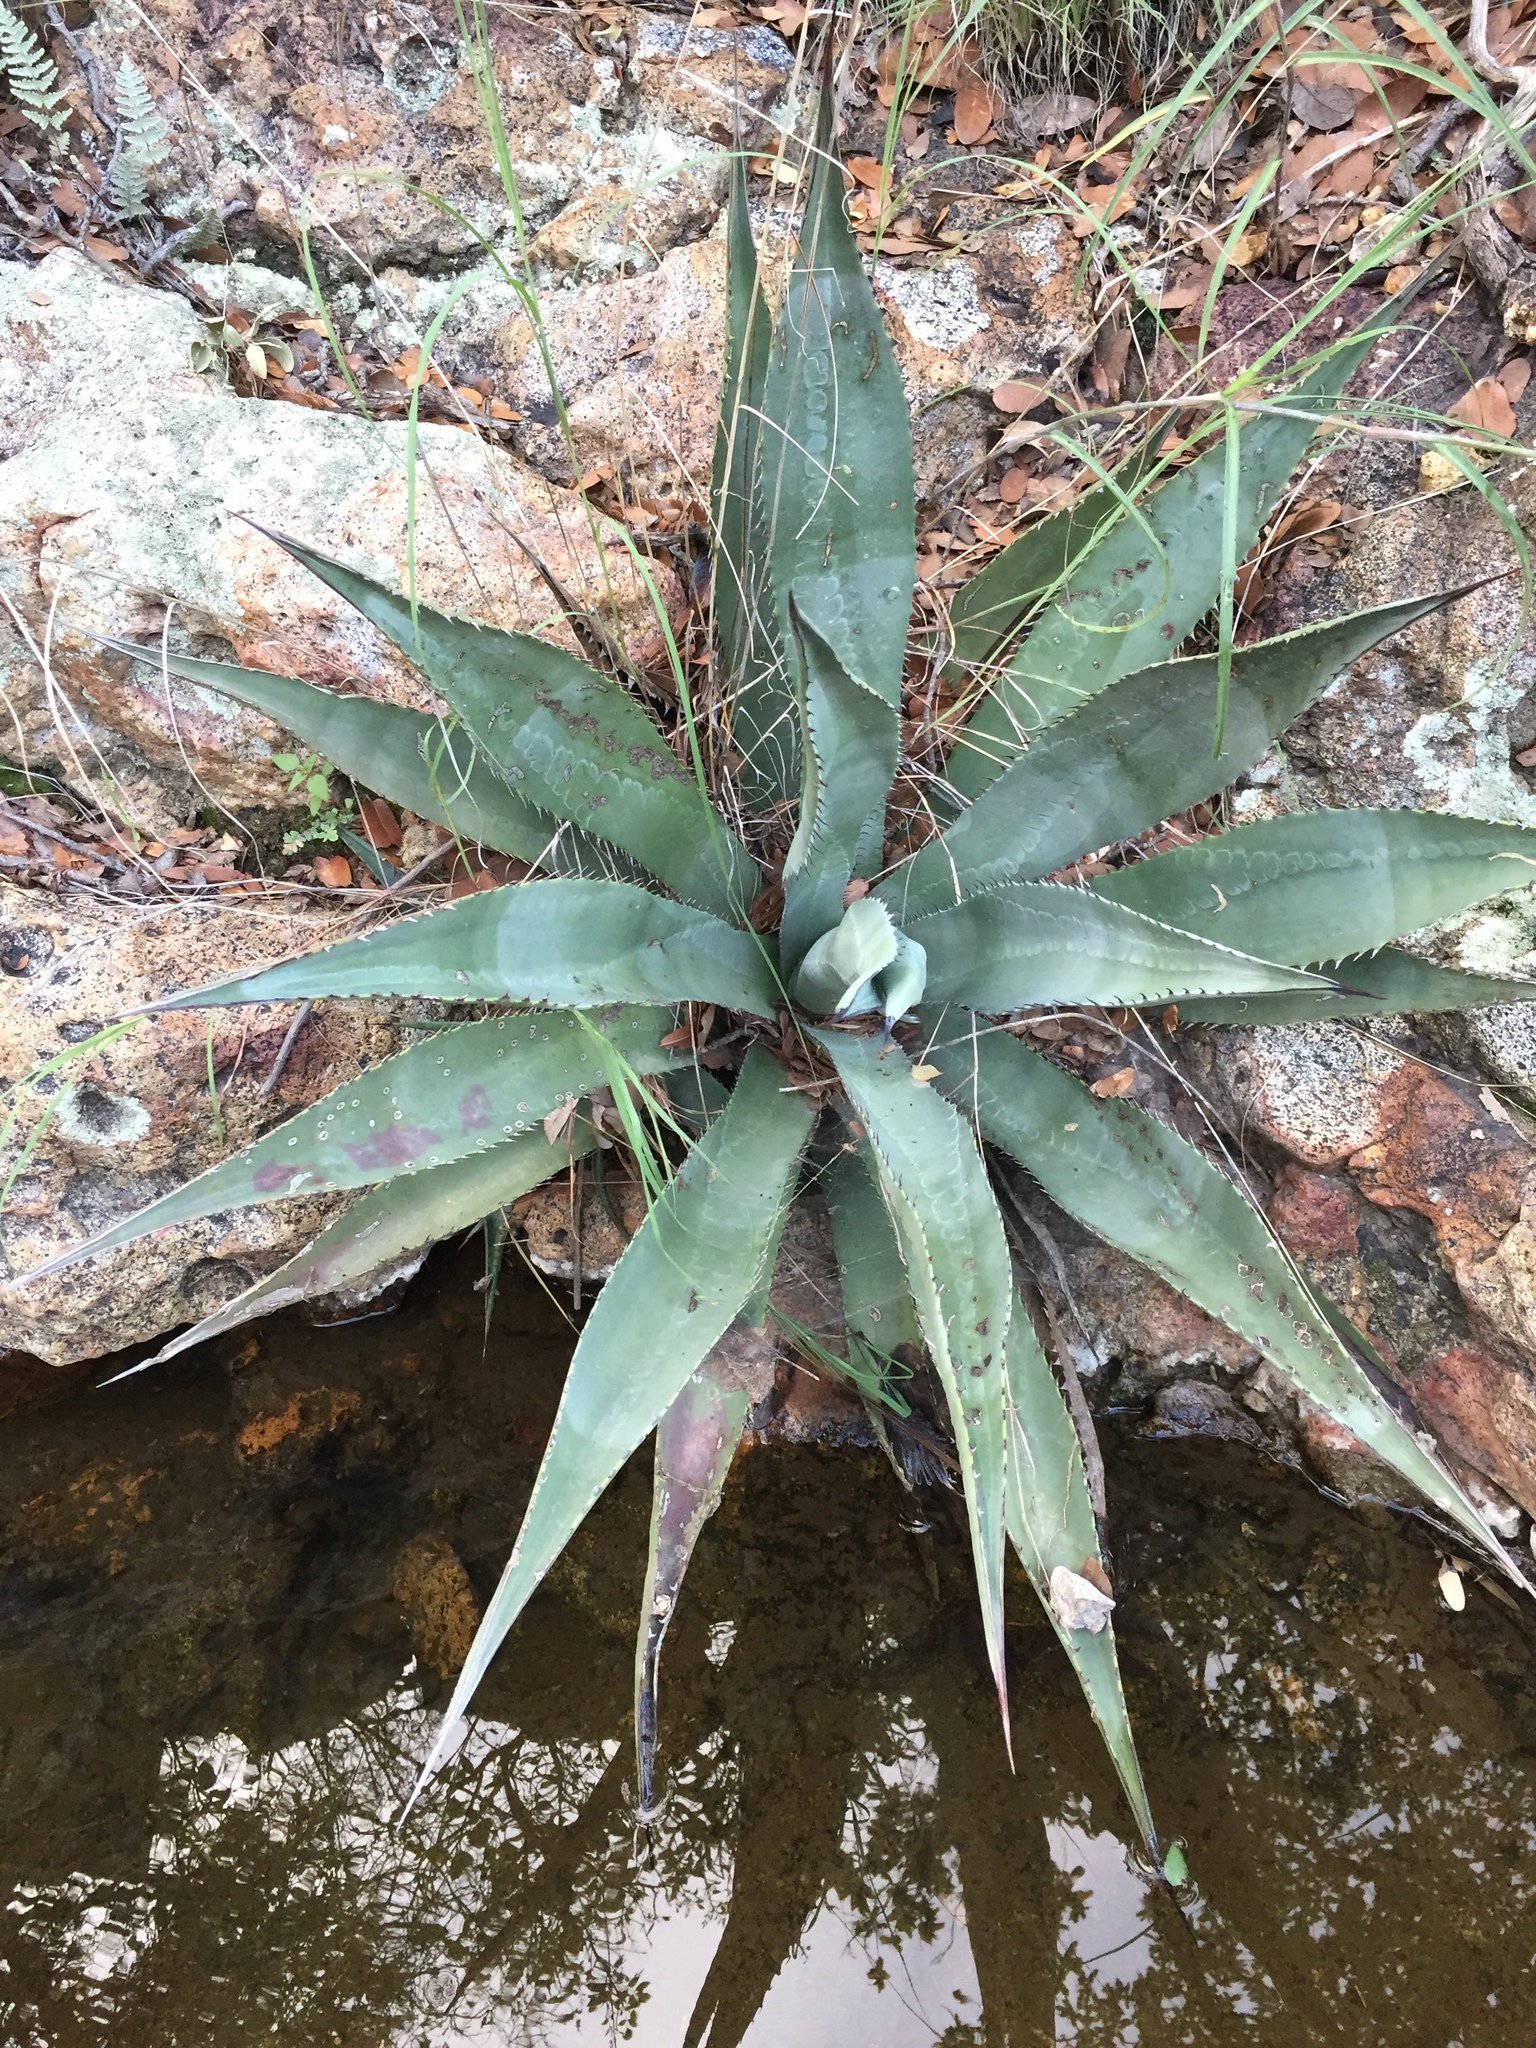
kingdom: Plantae
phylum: Tracheophyta
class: Liliopsida
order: Asparagales
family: Asparagaceae
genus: Agave
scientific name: Agave palmeri
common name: Palmer agave
